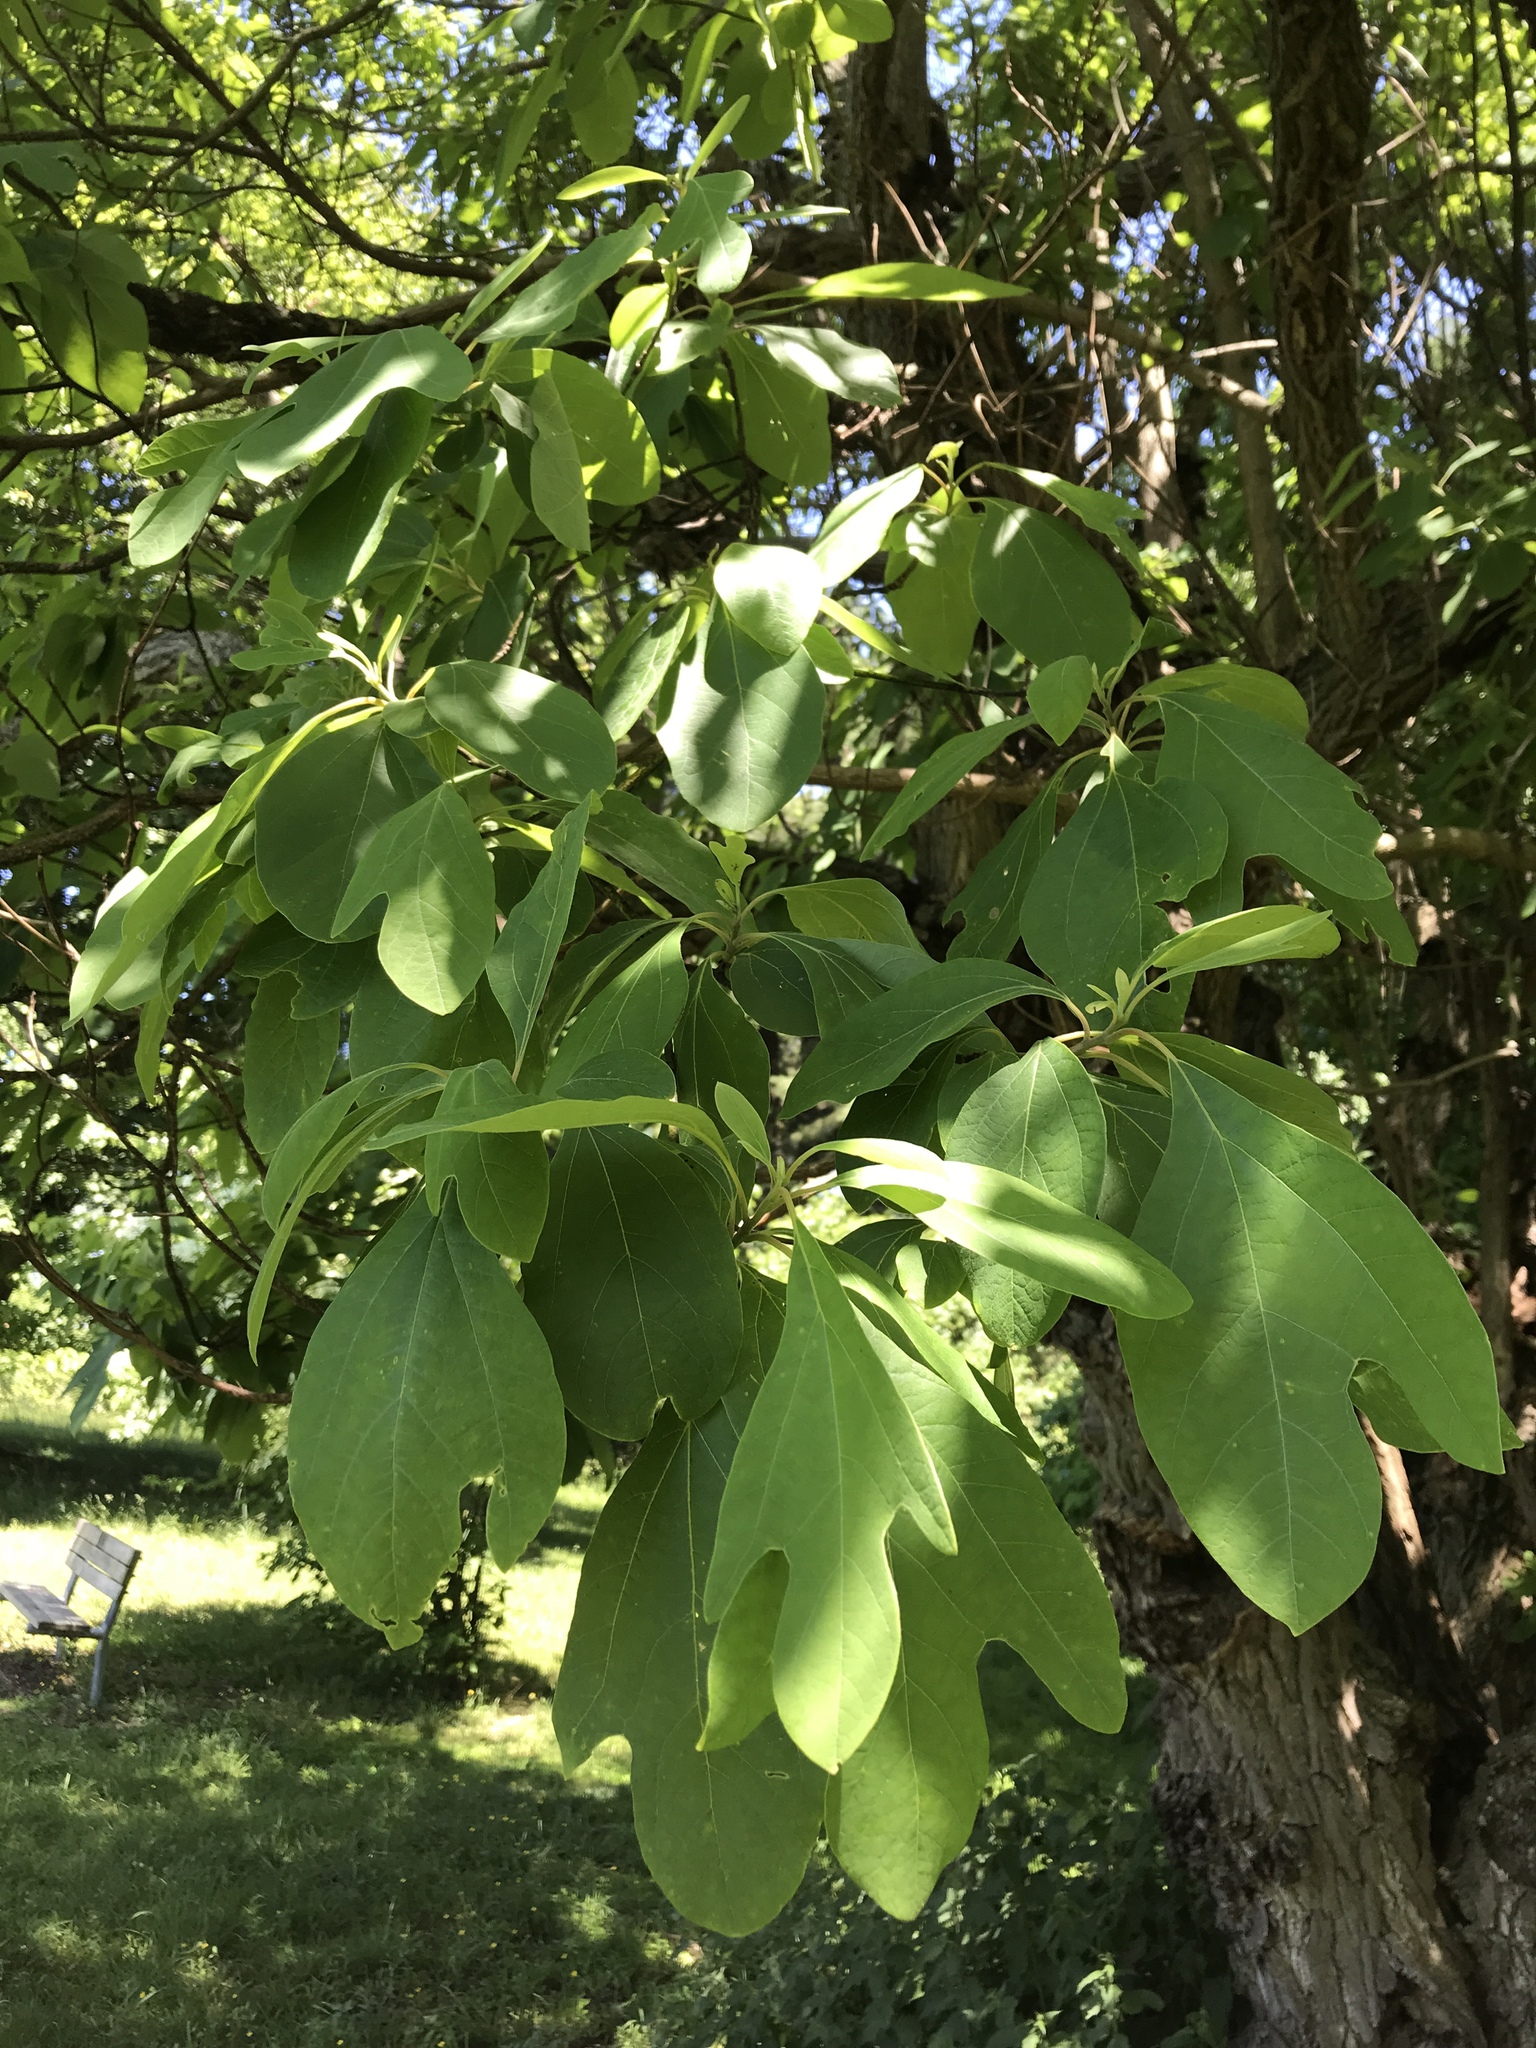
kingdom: Plantae
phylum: Tracheophyta
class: Magnoliopsida
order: Laurales
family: Lauraceae
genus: Sassafras
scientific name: Sassafras albidum
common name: Sassafras
